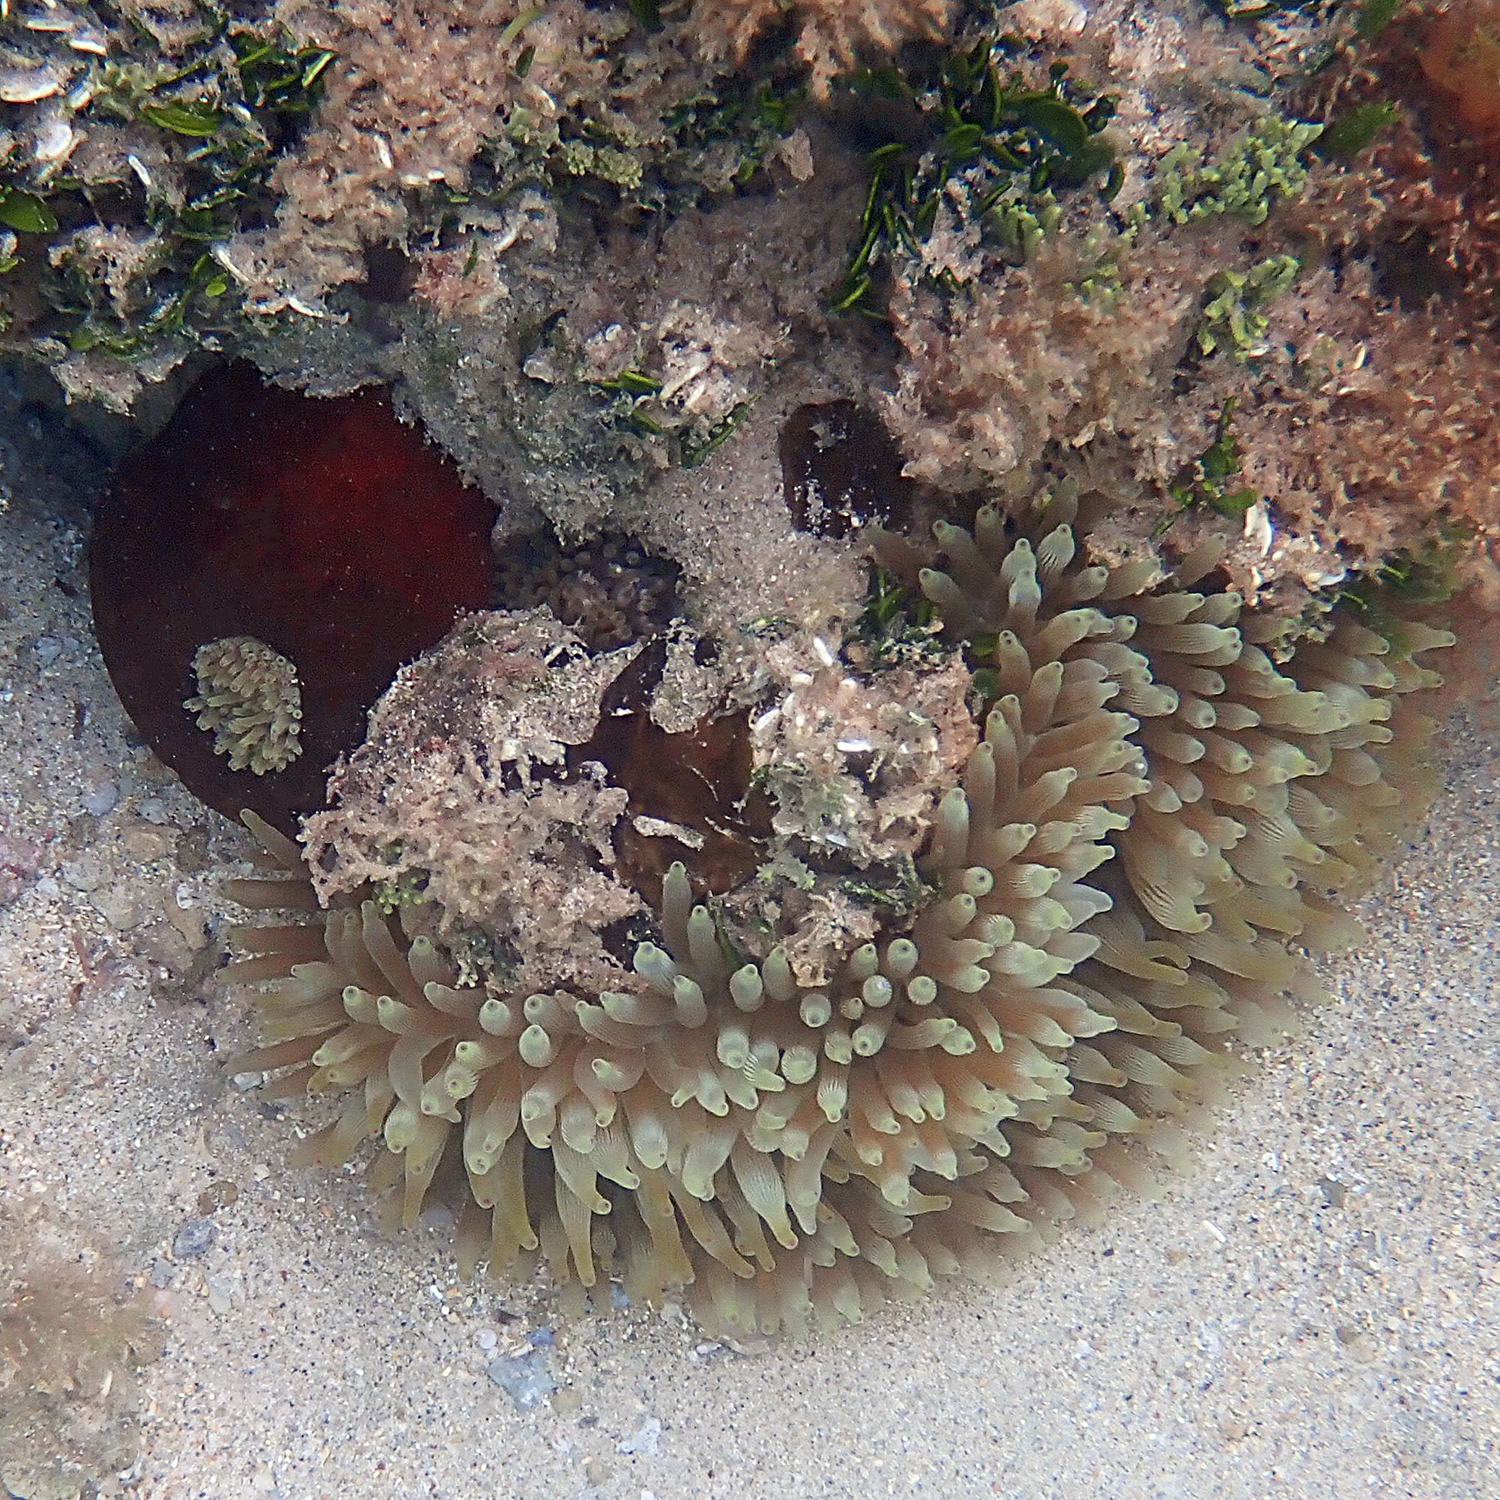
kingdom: Animalia
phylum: Cnidaria
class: Anthozoa
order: Actiniaria
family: Actiniidae
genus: Entacmaea
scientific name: Entacmaea quadricolor
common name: Bulb tentacle sea anemone
